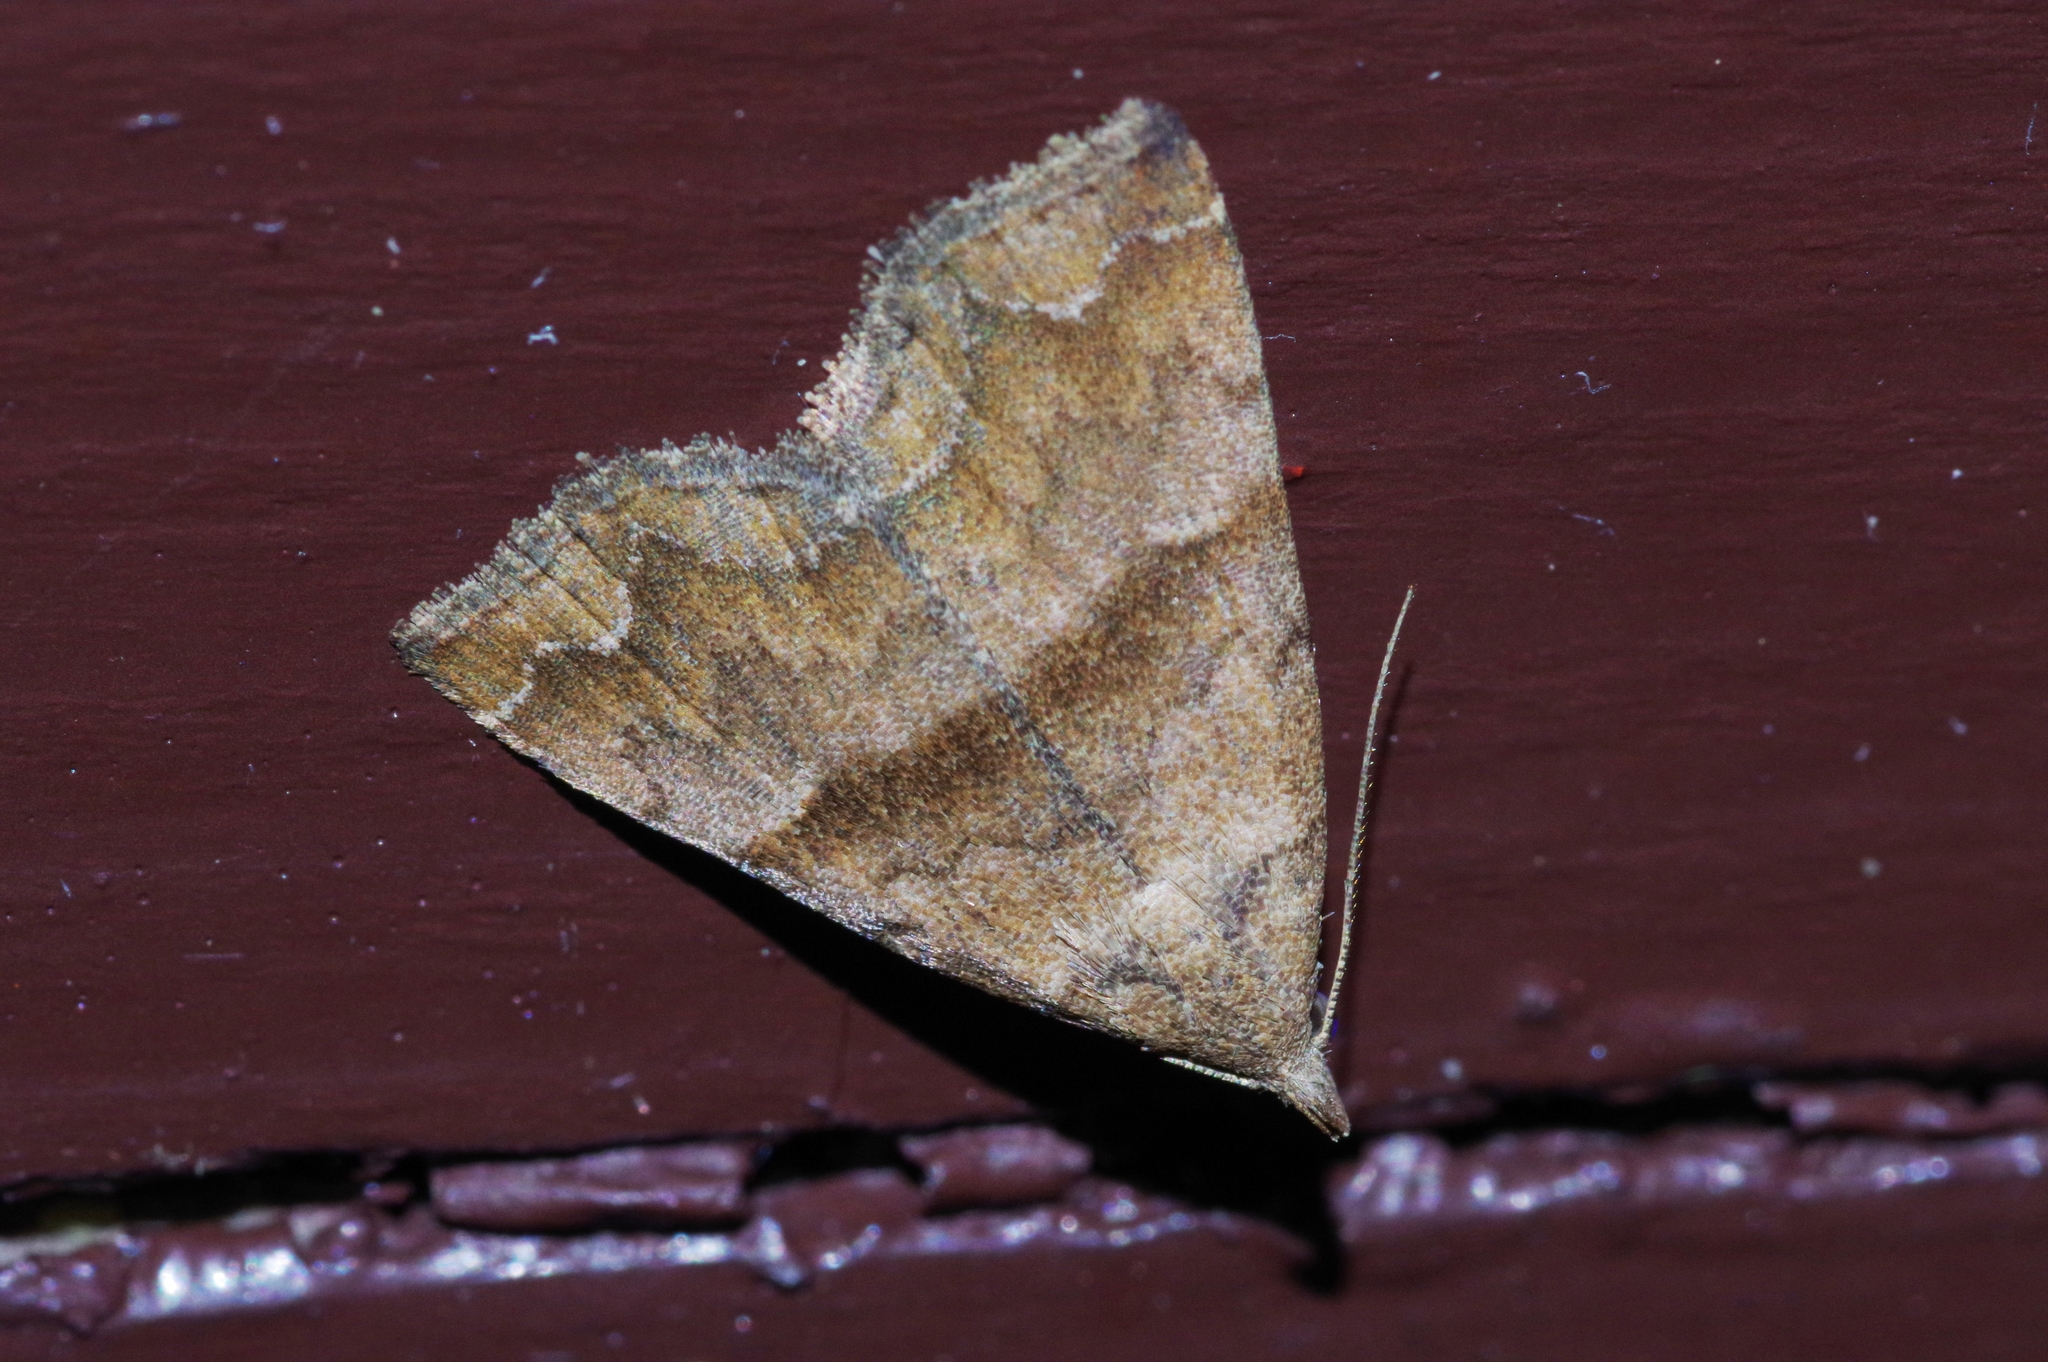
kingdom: Animalia
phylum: Arthropoda
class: Insecta
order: Lepidoptera
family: Erebidae
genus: Polypogon
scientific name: Polypogon Hipoepa fractalis
